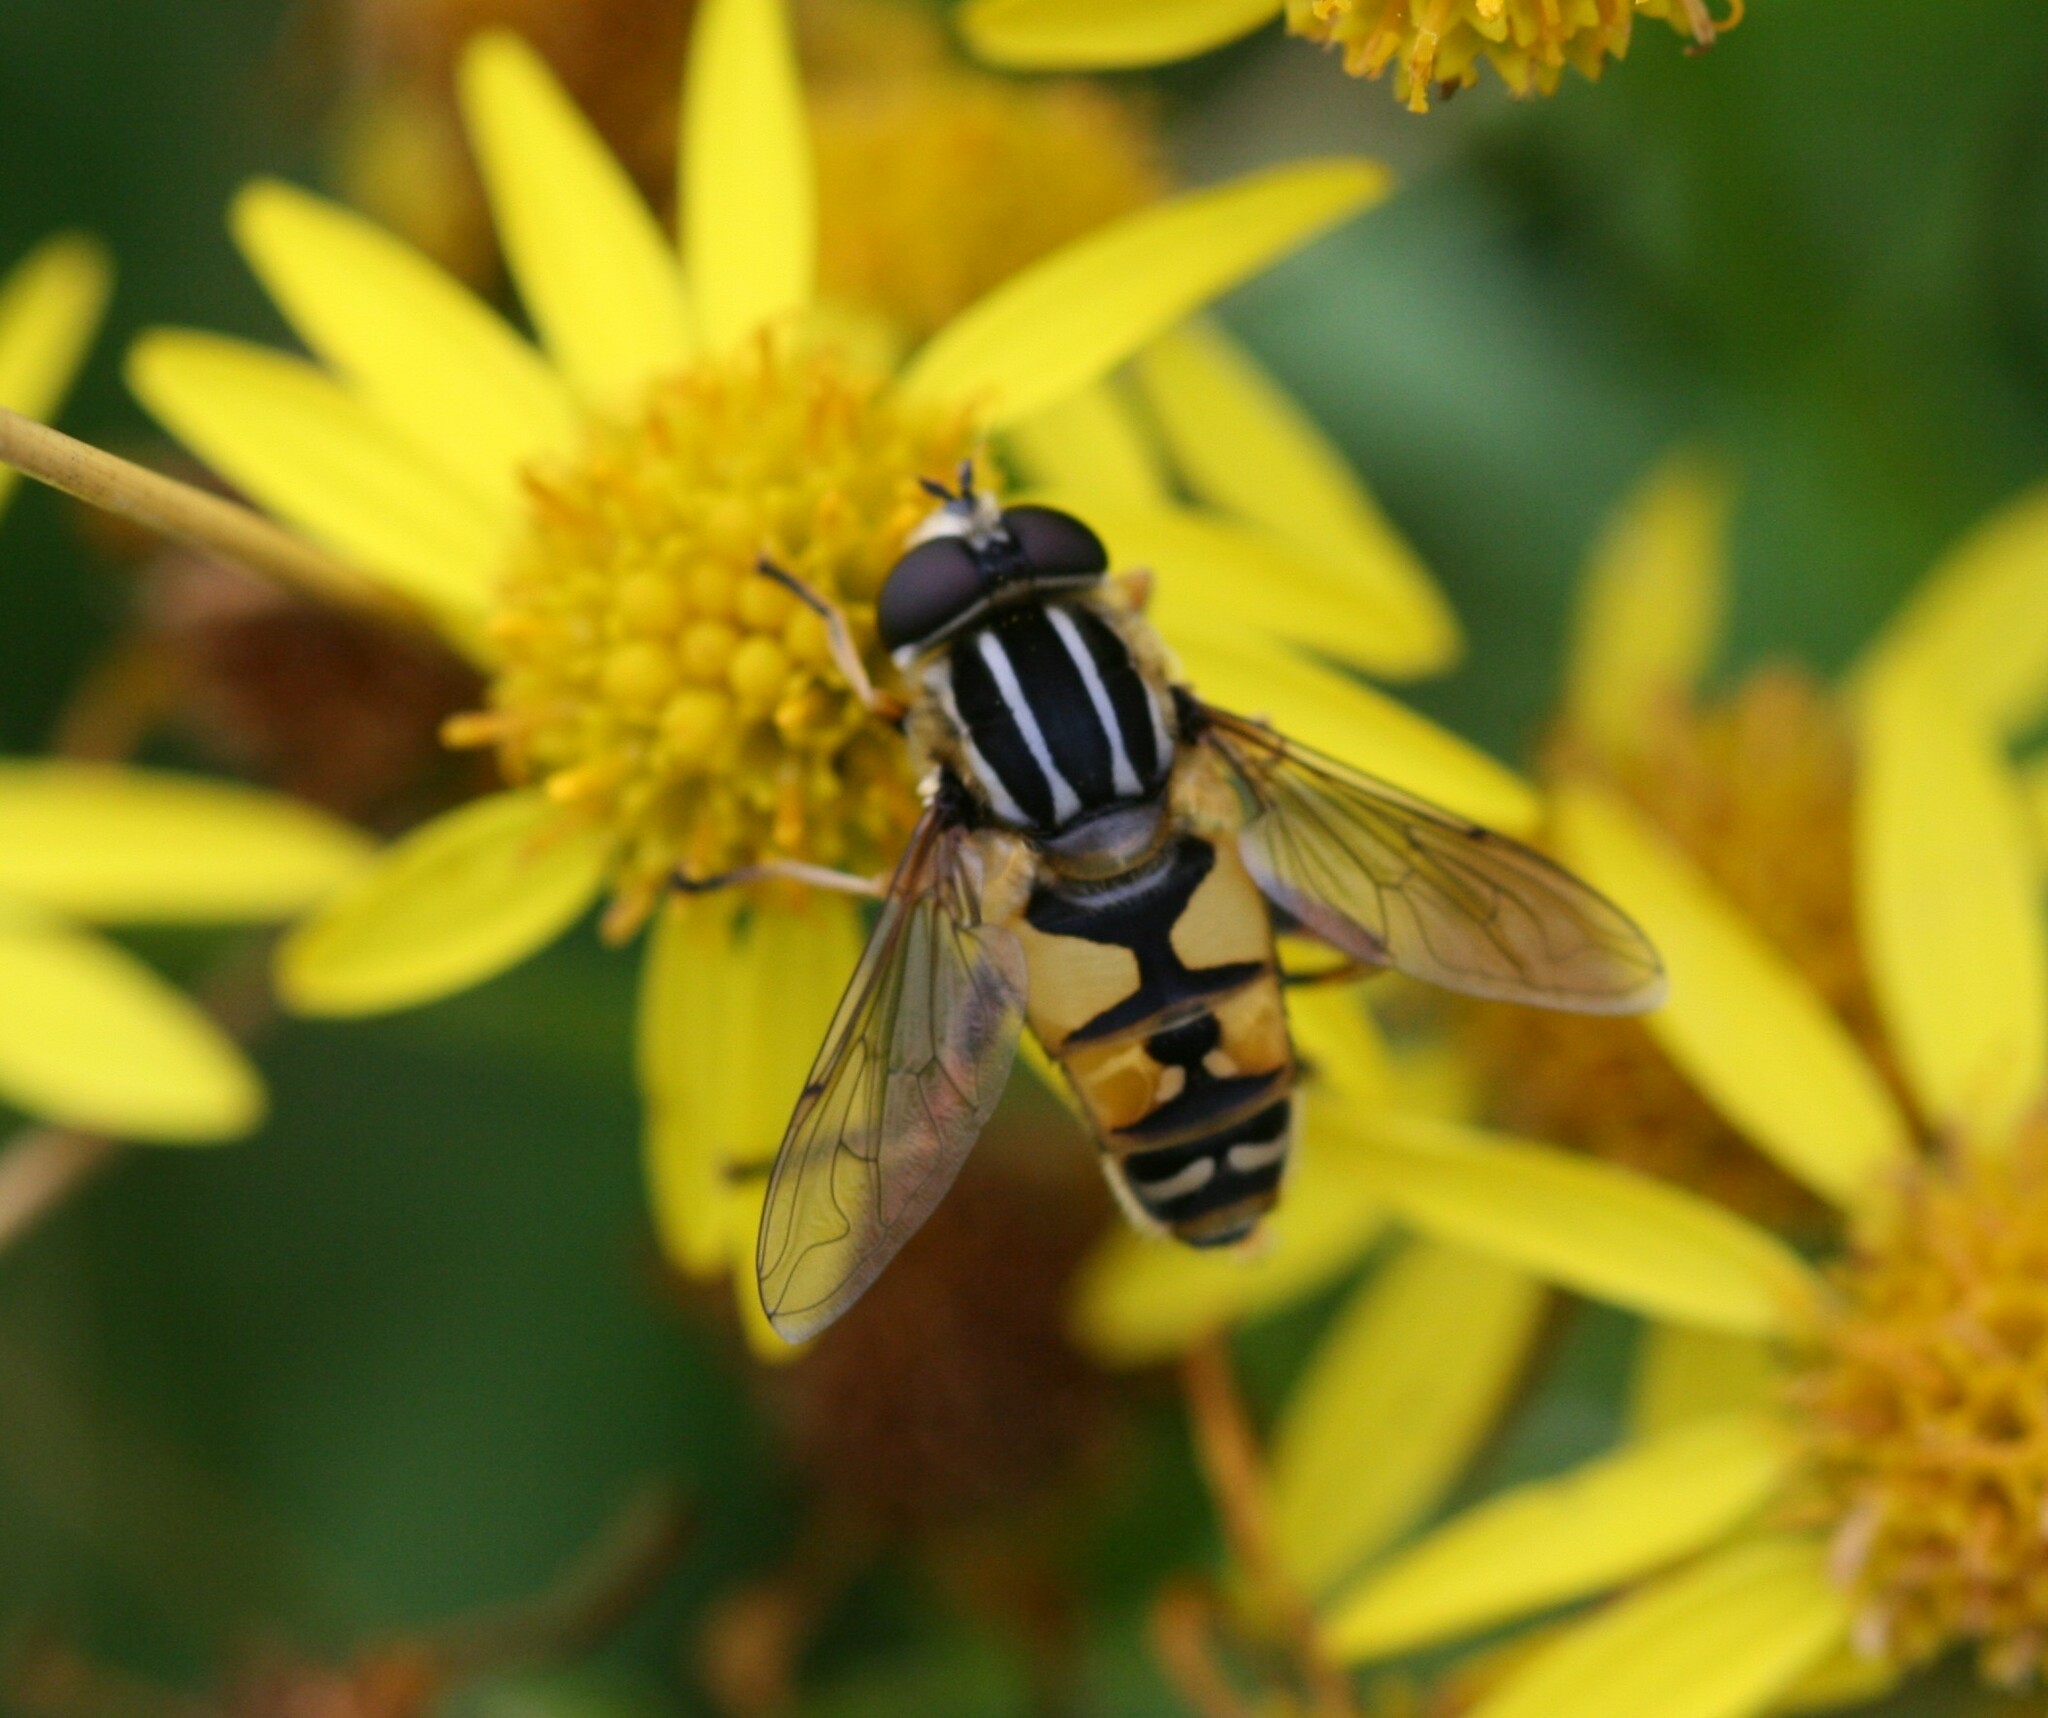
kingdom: Animalia
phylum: Arthropoda
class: Insecta
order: Diptera
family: Syrphidae
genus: Helophilus
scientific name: Helophilus pendulus
